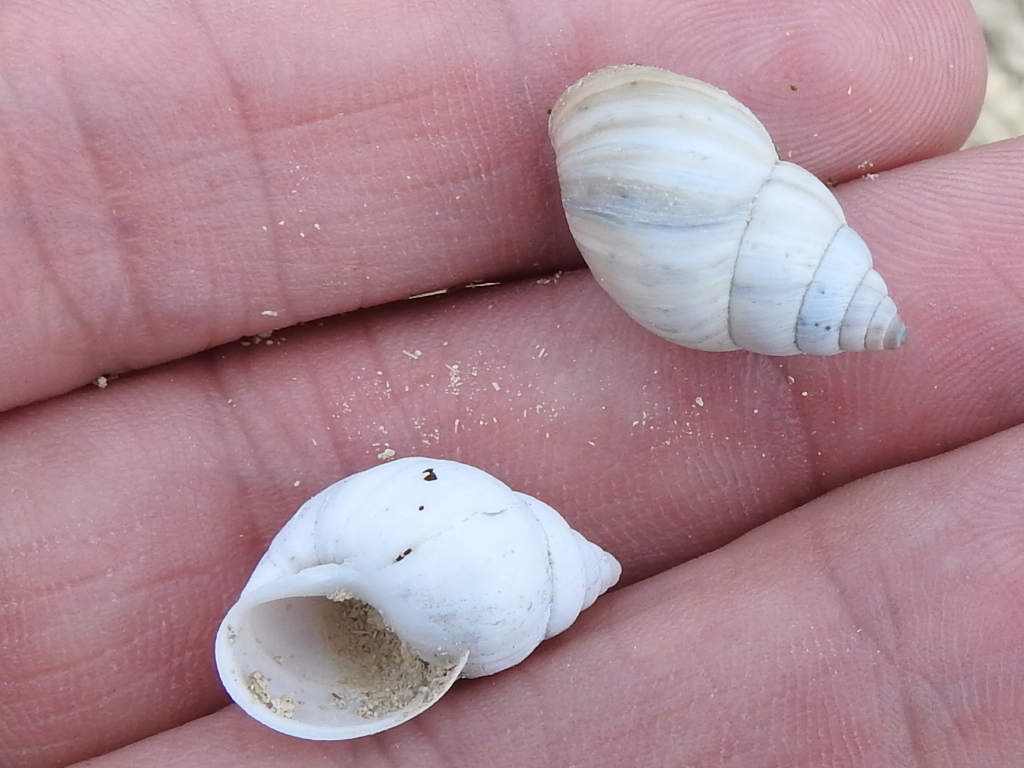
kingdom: Animalia
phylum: Mollusca
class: Gastropoda
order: Stylommatophora
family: Bulimulidae
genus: Rabdotus
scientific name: Rabdotus mooreanus
